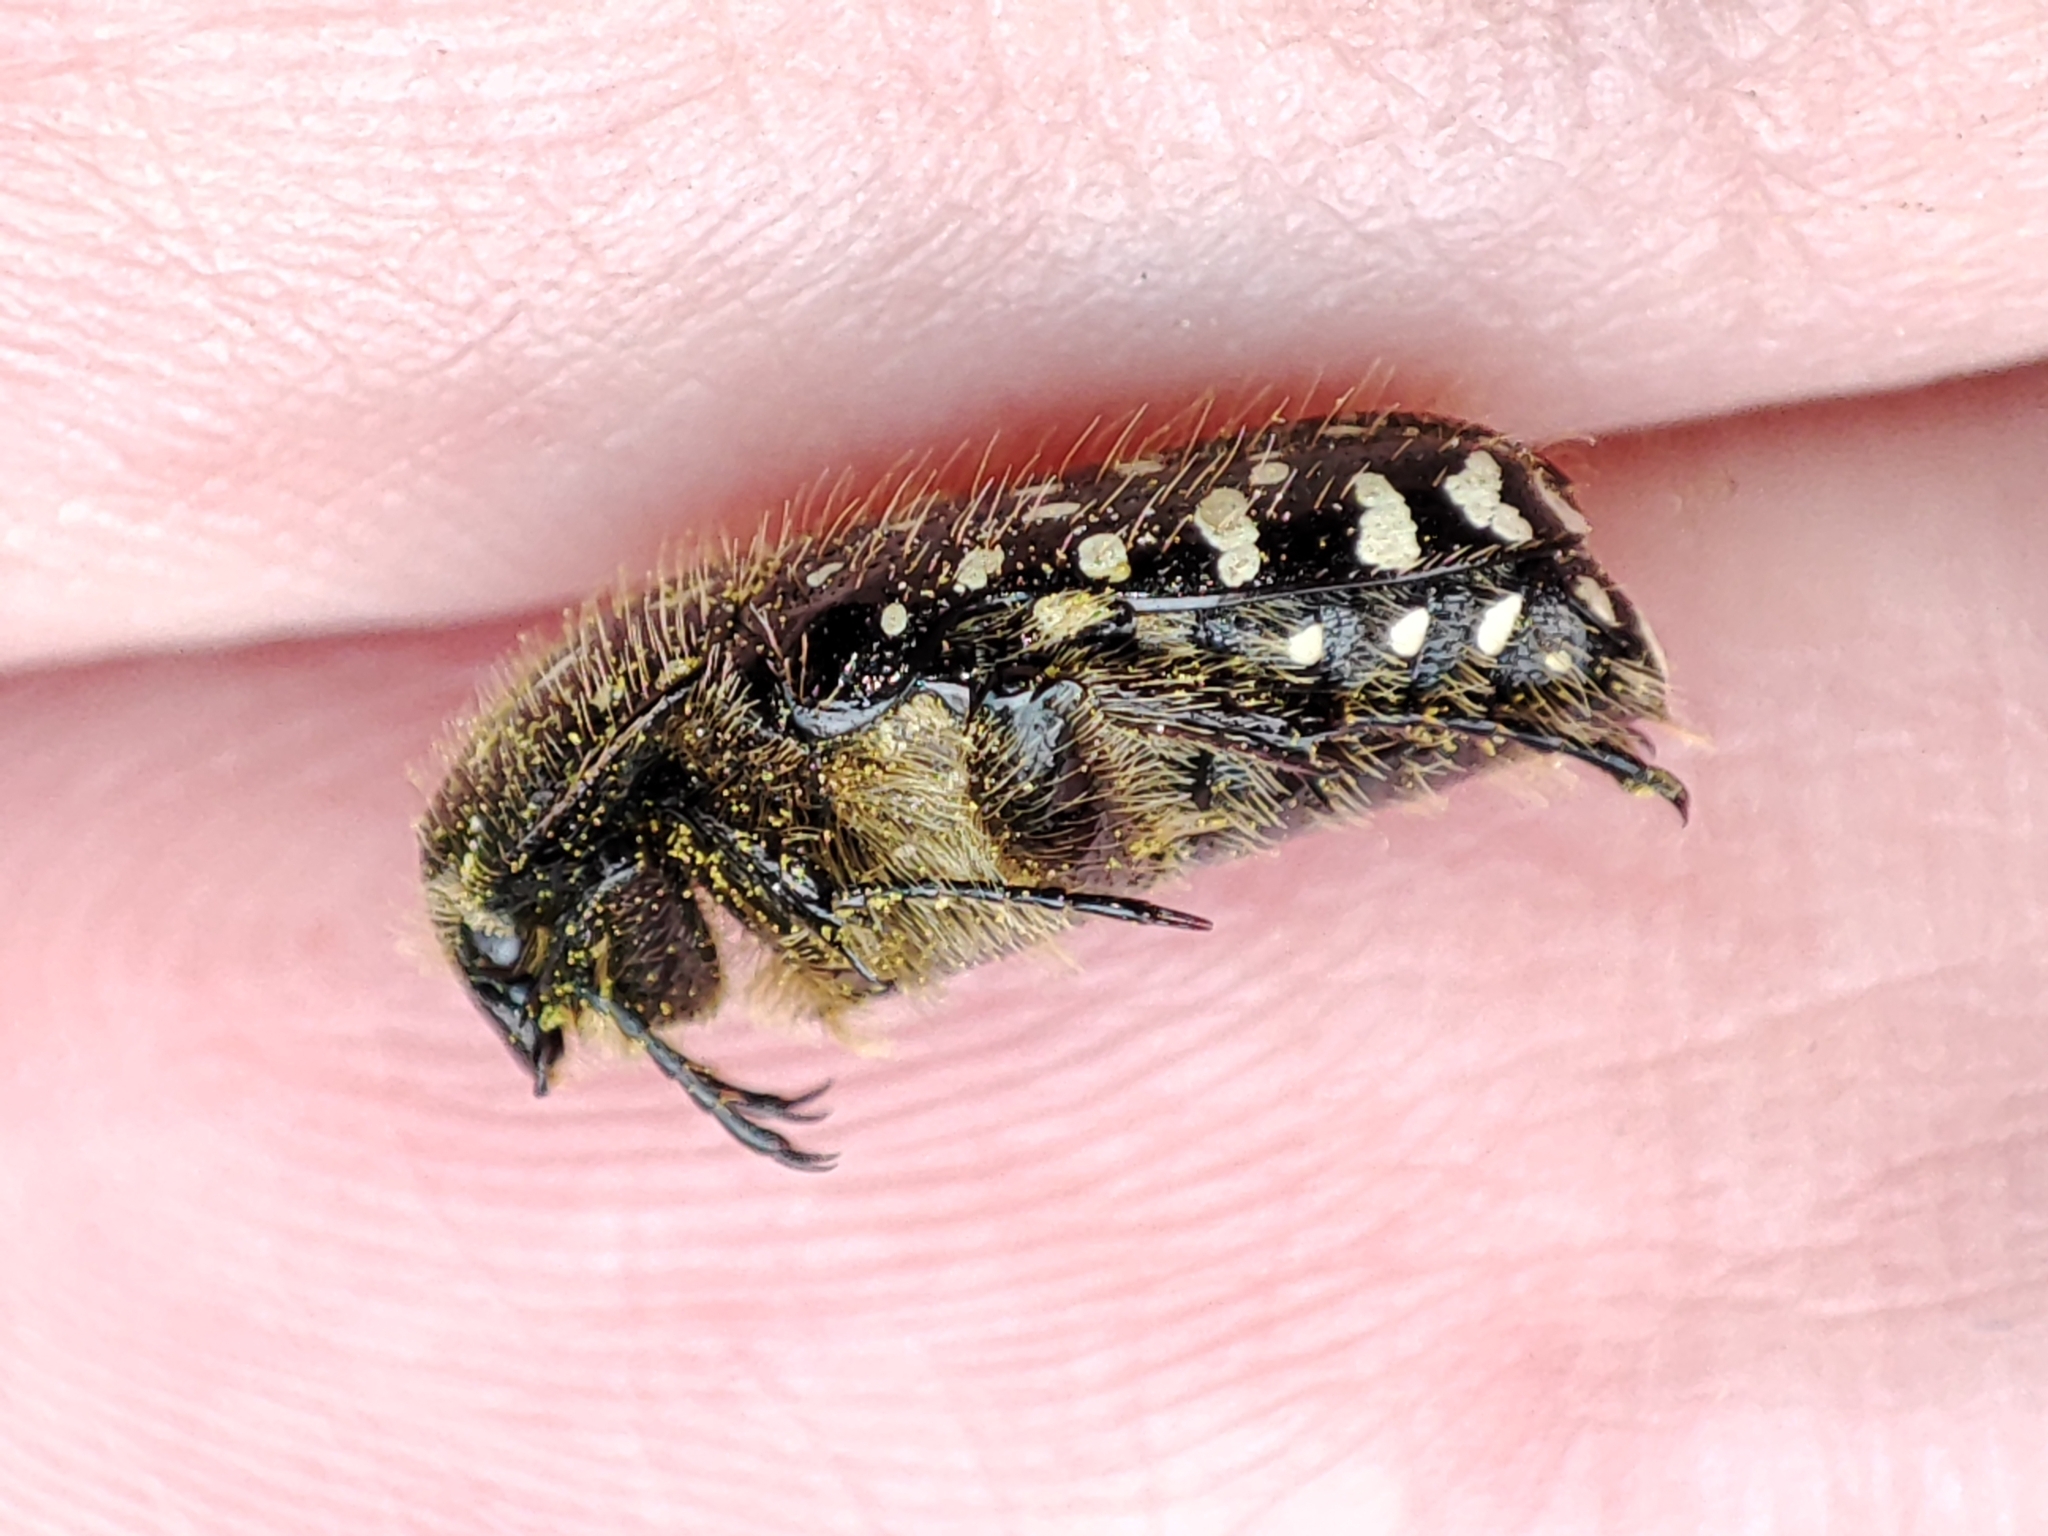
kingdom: Animalia
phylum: Arthropoda
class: Insecta
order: Coleoptera
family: Scarabaeidae
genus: Oxythyrea
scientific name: Oxythyrea funesta
